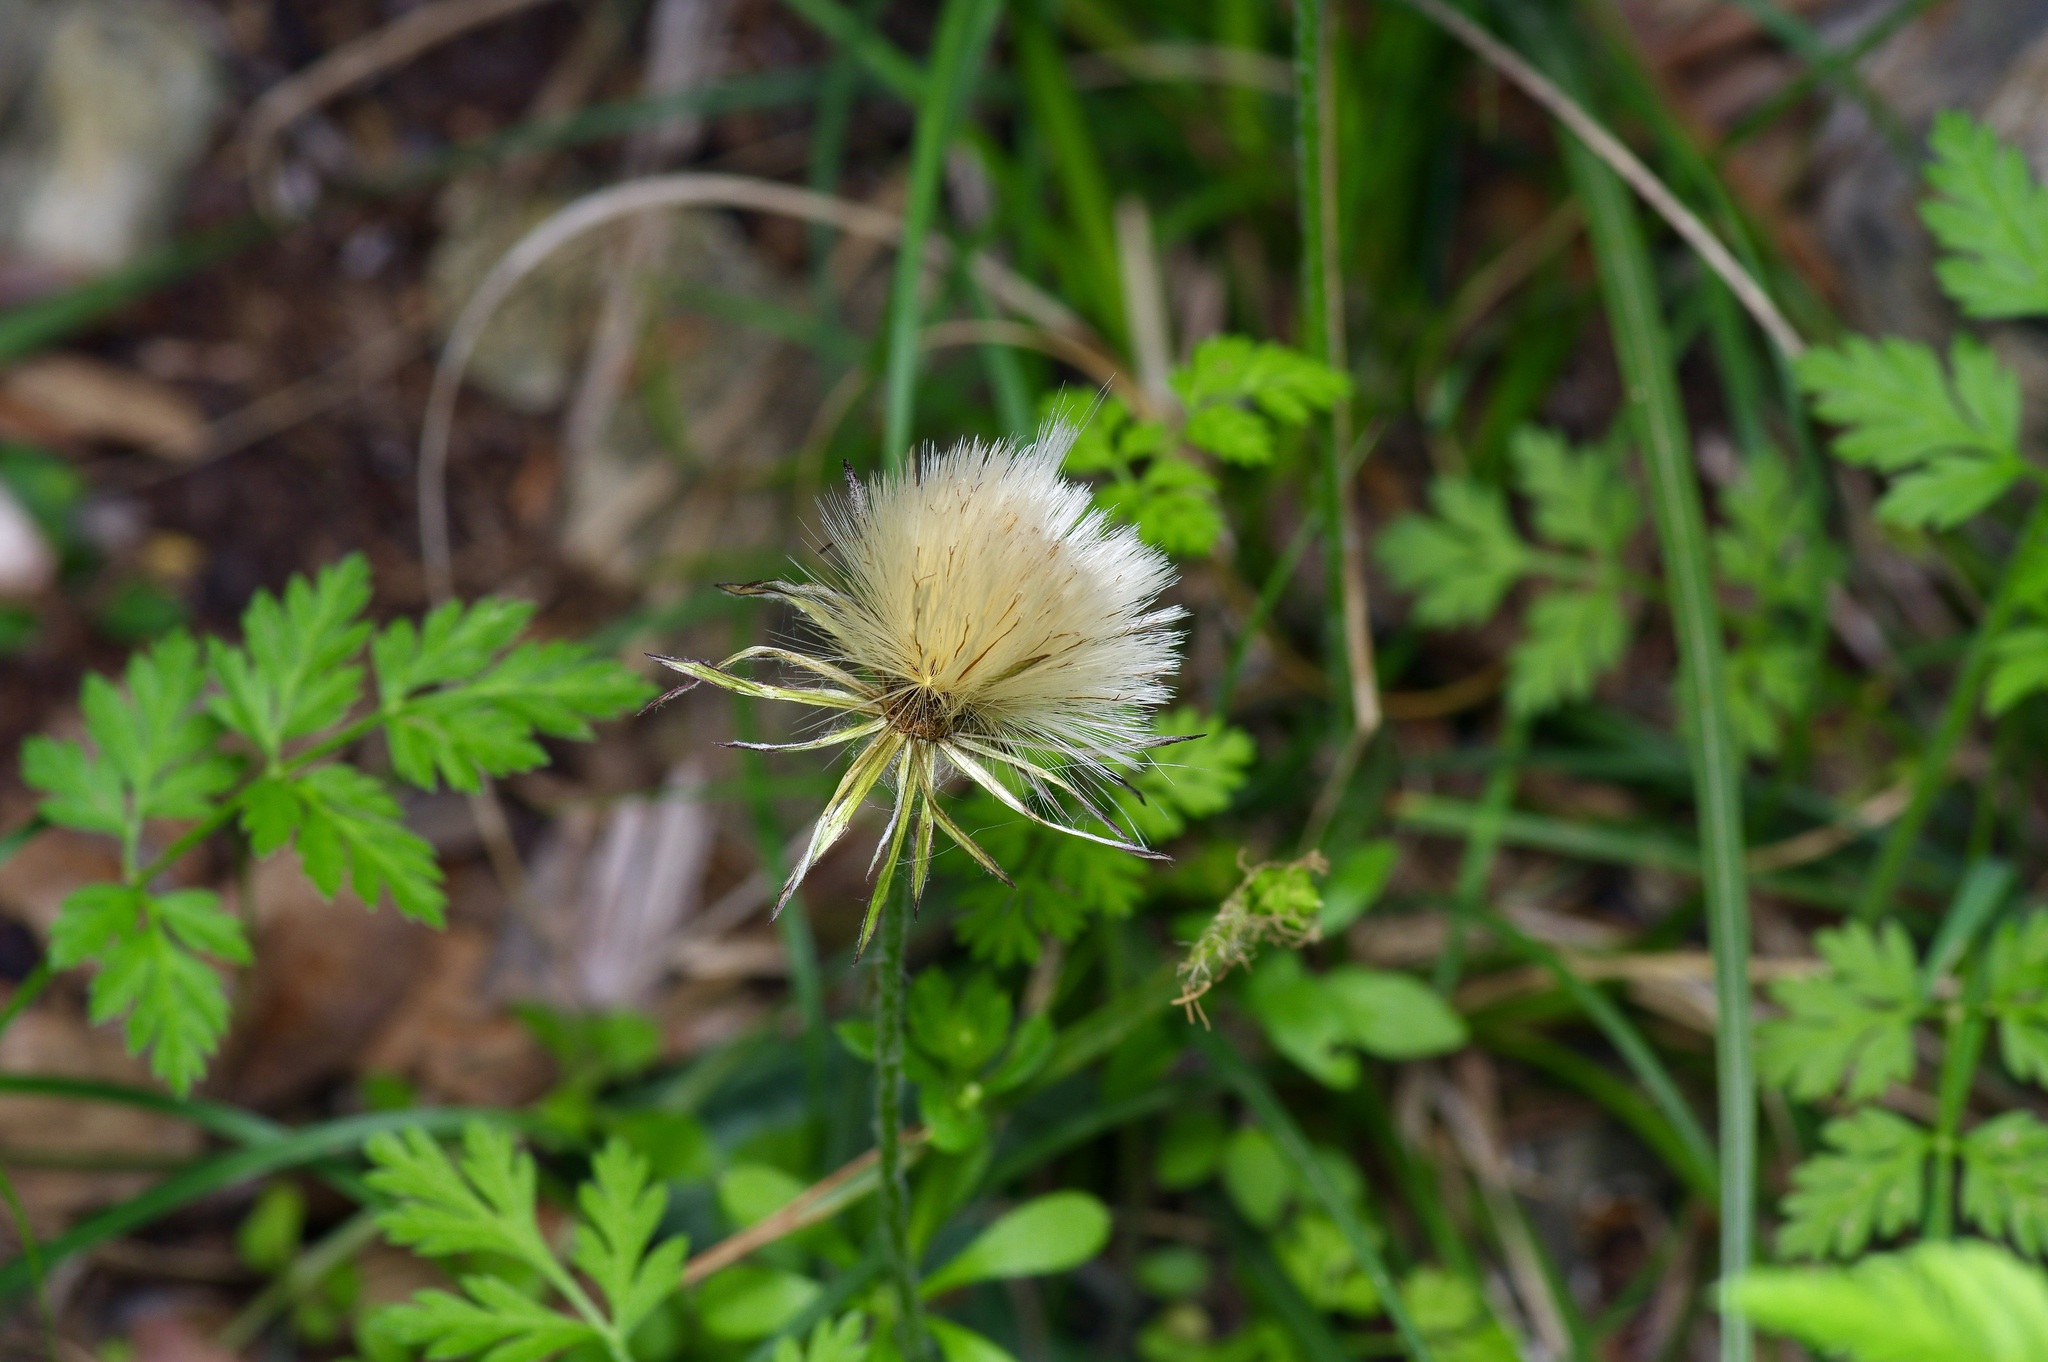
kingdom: Plantae
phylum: Tracheophyta
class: Magnoliopsida
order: Asterales
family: Asteraceae
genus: Chaptalia
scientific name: Chaptalia texana
